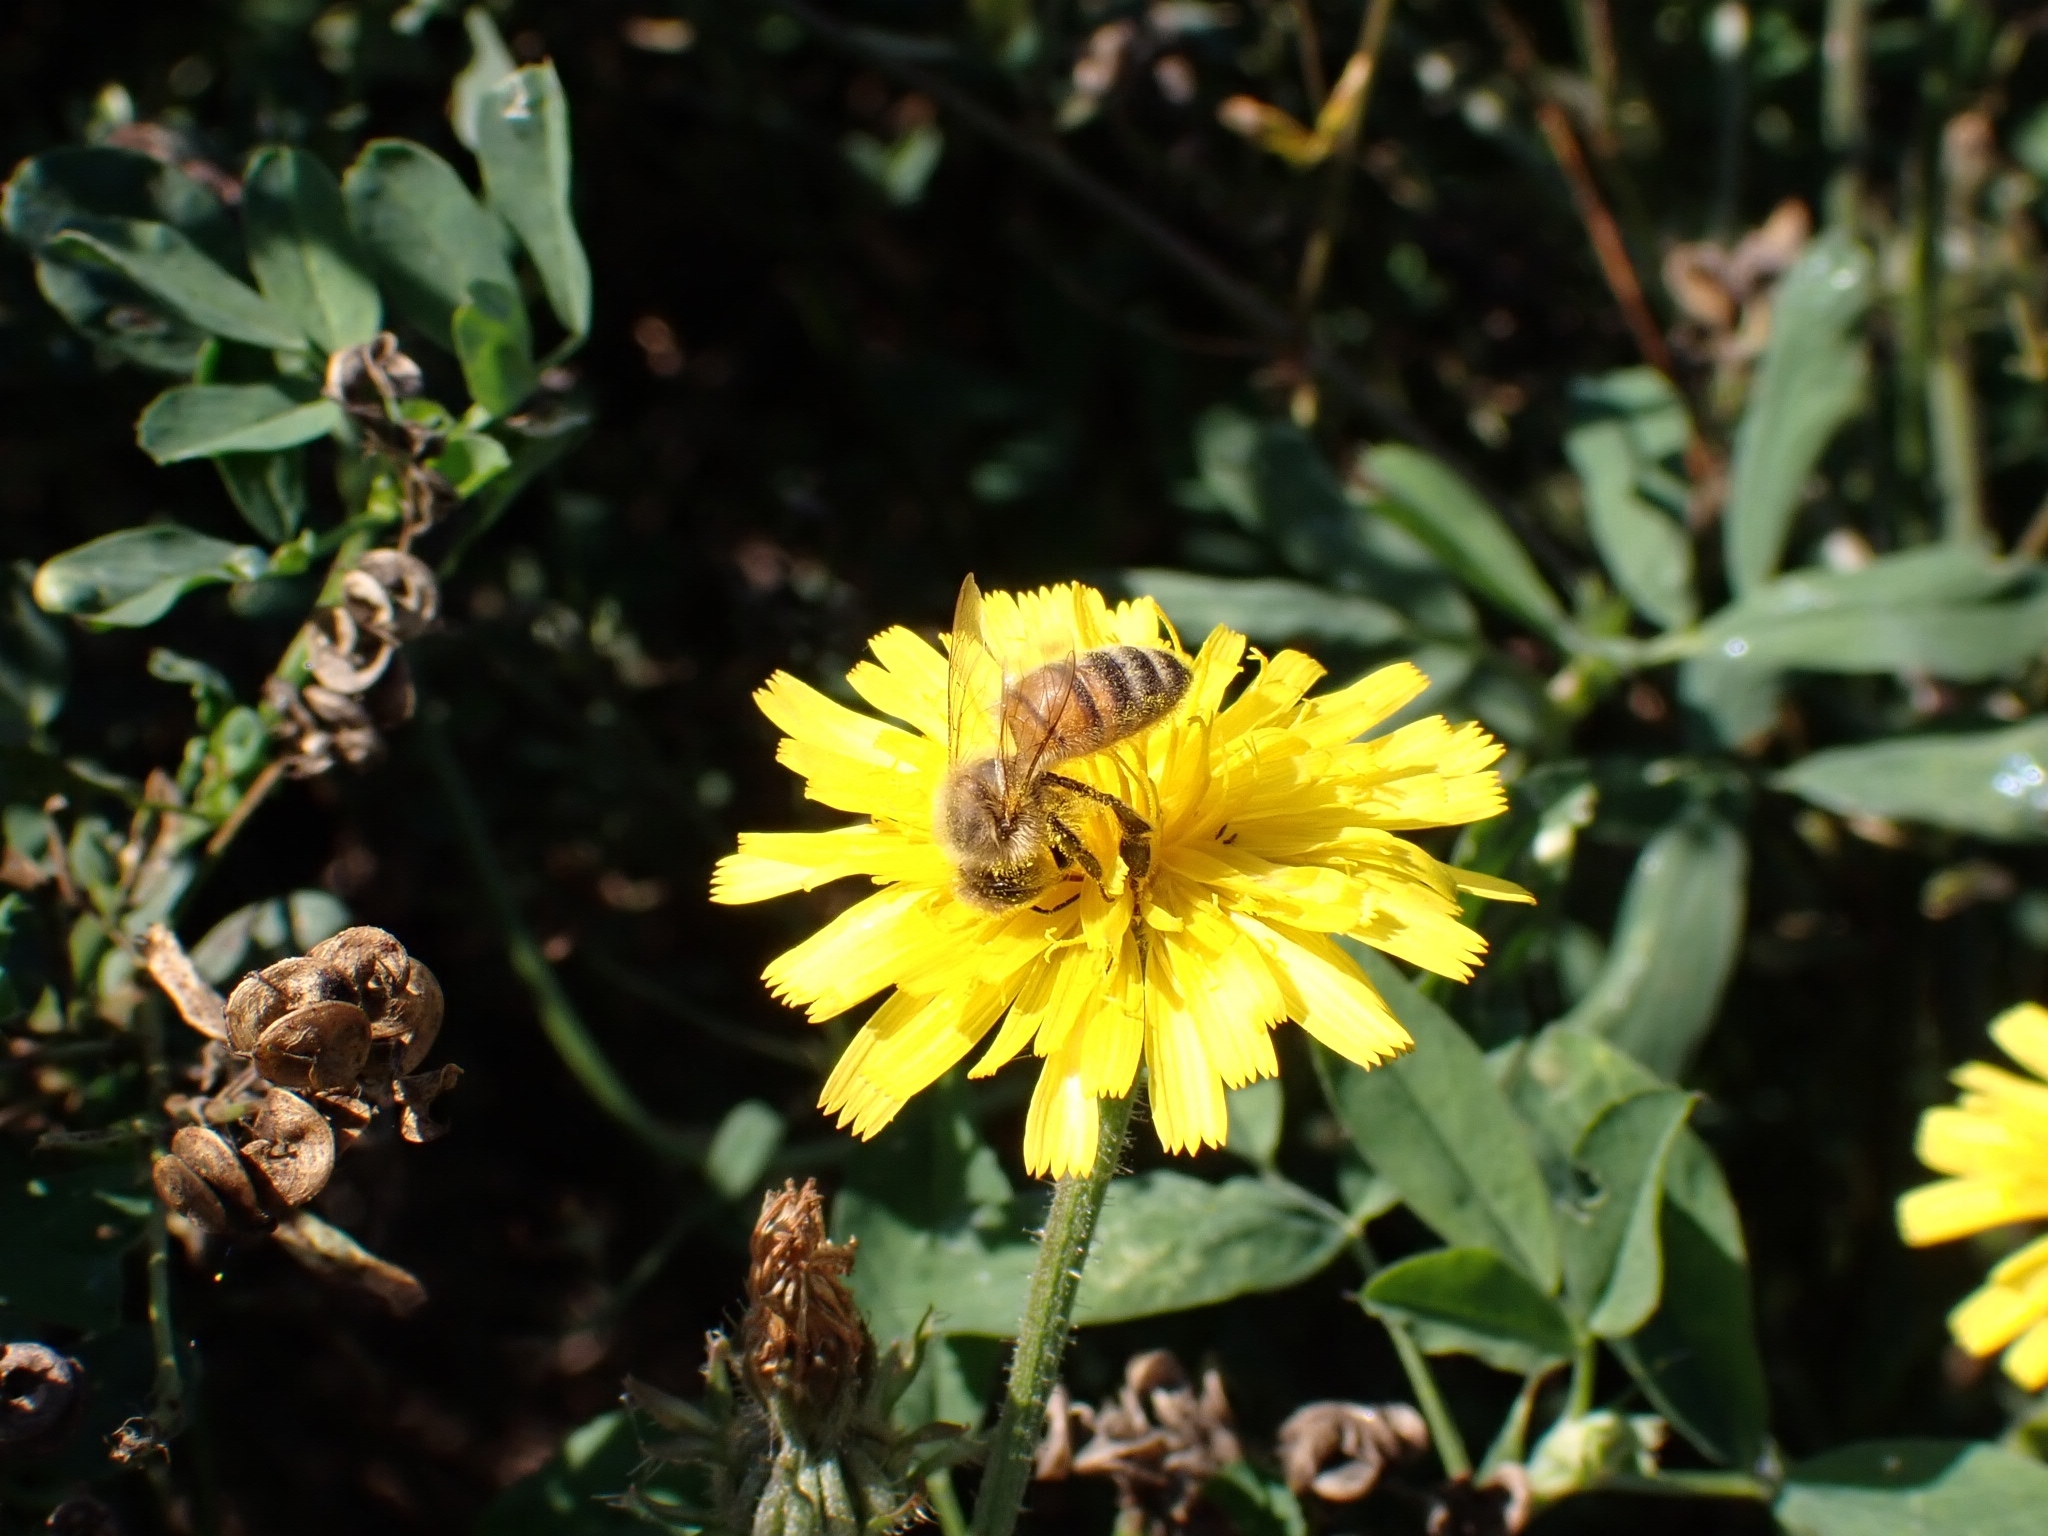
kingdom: Animalia
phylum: Arthropoda
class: Insecta
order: Hymenoptera
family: Apidae
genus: Apis
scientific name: Apis mellifera
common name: Honey bee
